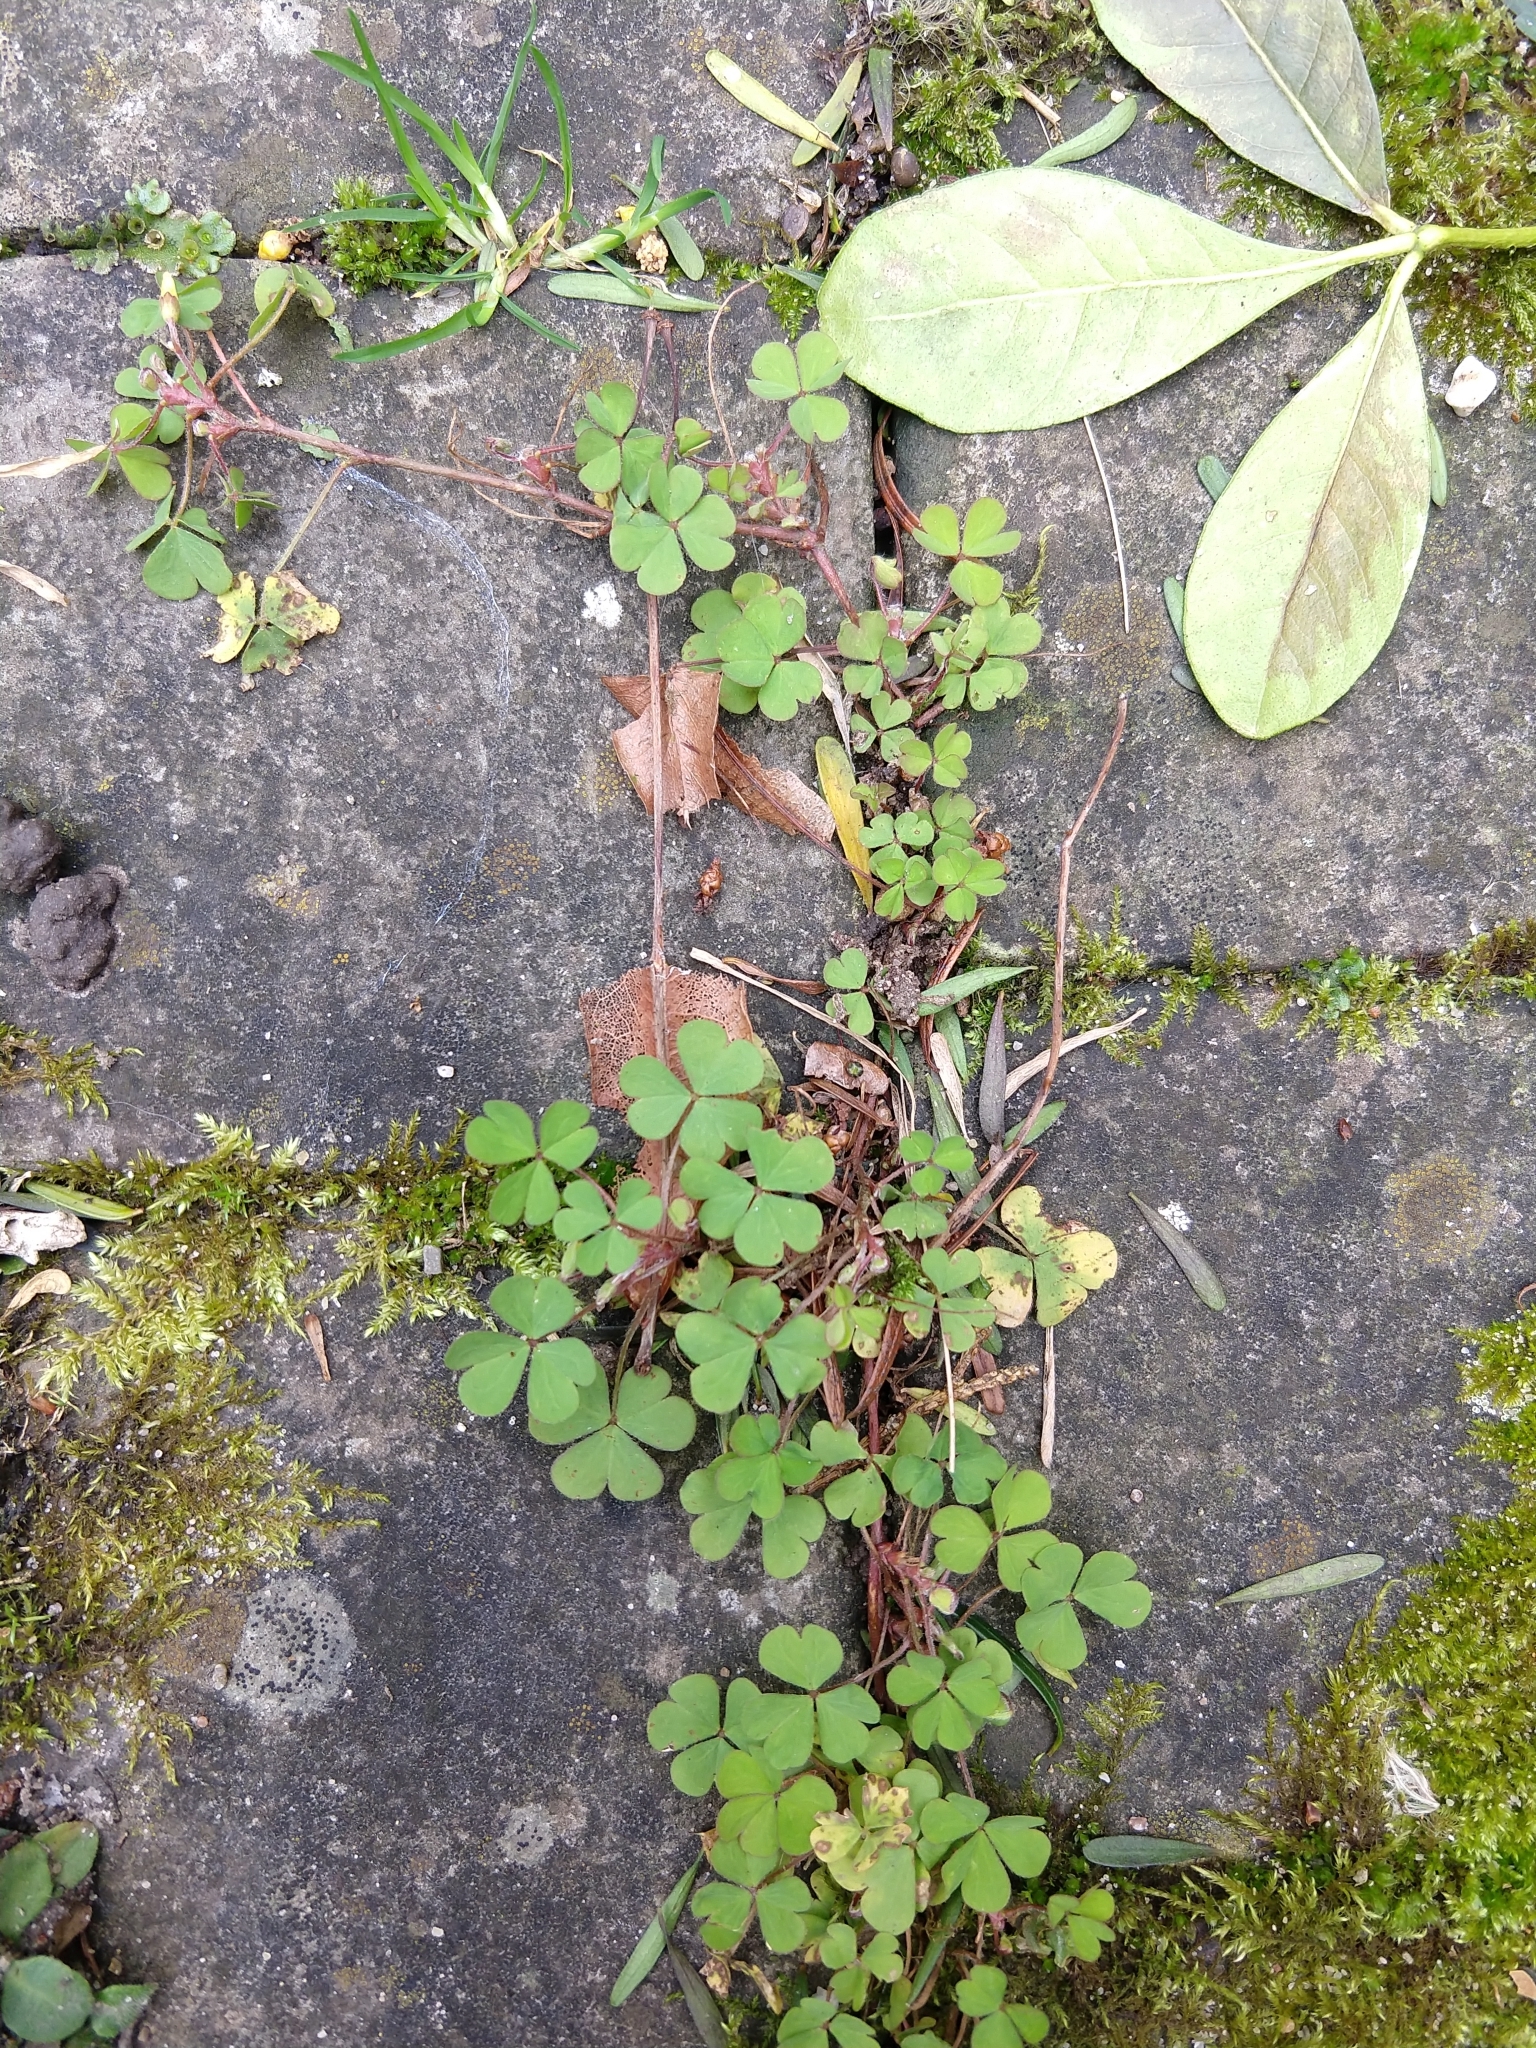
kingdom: Plantae
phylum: Tracheophyta
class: Magnoliopsida
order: Oxalidales
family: Oxalidaceae
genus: Oxalis
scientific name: Oxalis corniculata
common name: Procumbent yellow-sorrel
